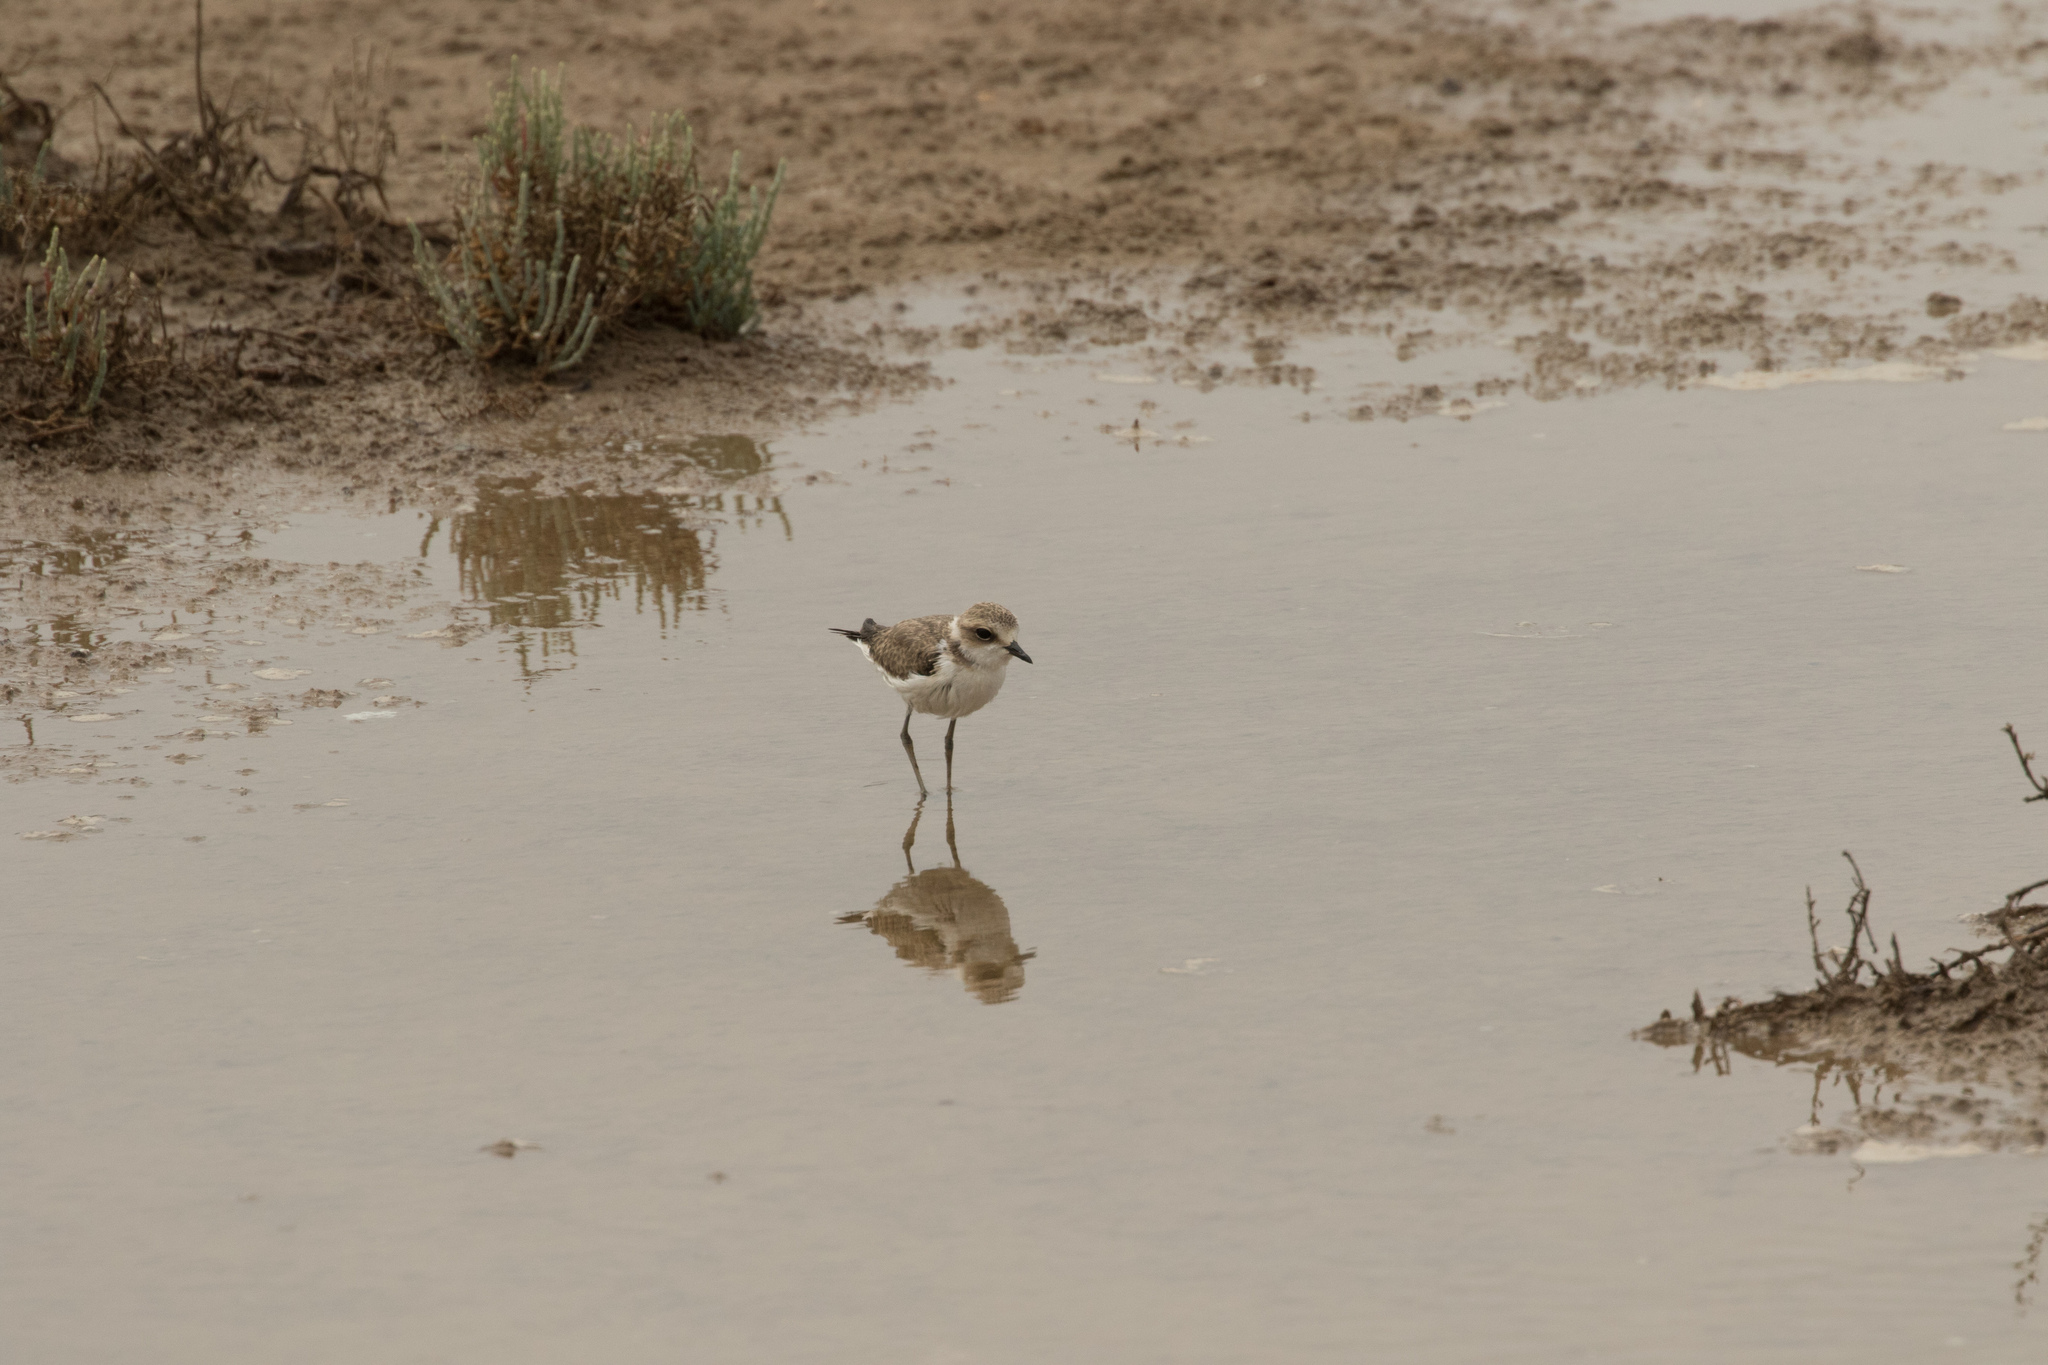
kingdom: Animalia
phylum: Chordata
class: Aves
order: Charadriiformes
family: Charadriidae
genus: Charadrius
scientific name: Charadrius alexandrinus
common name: Kentish plover
